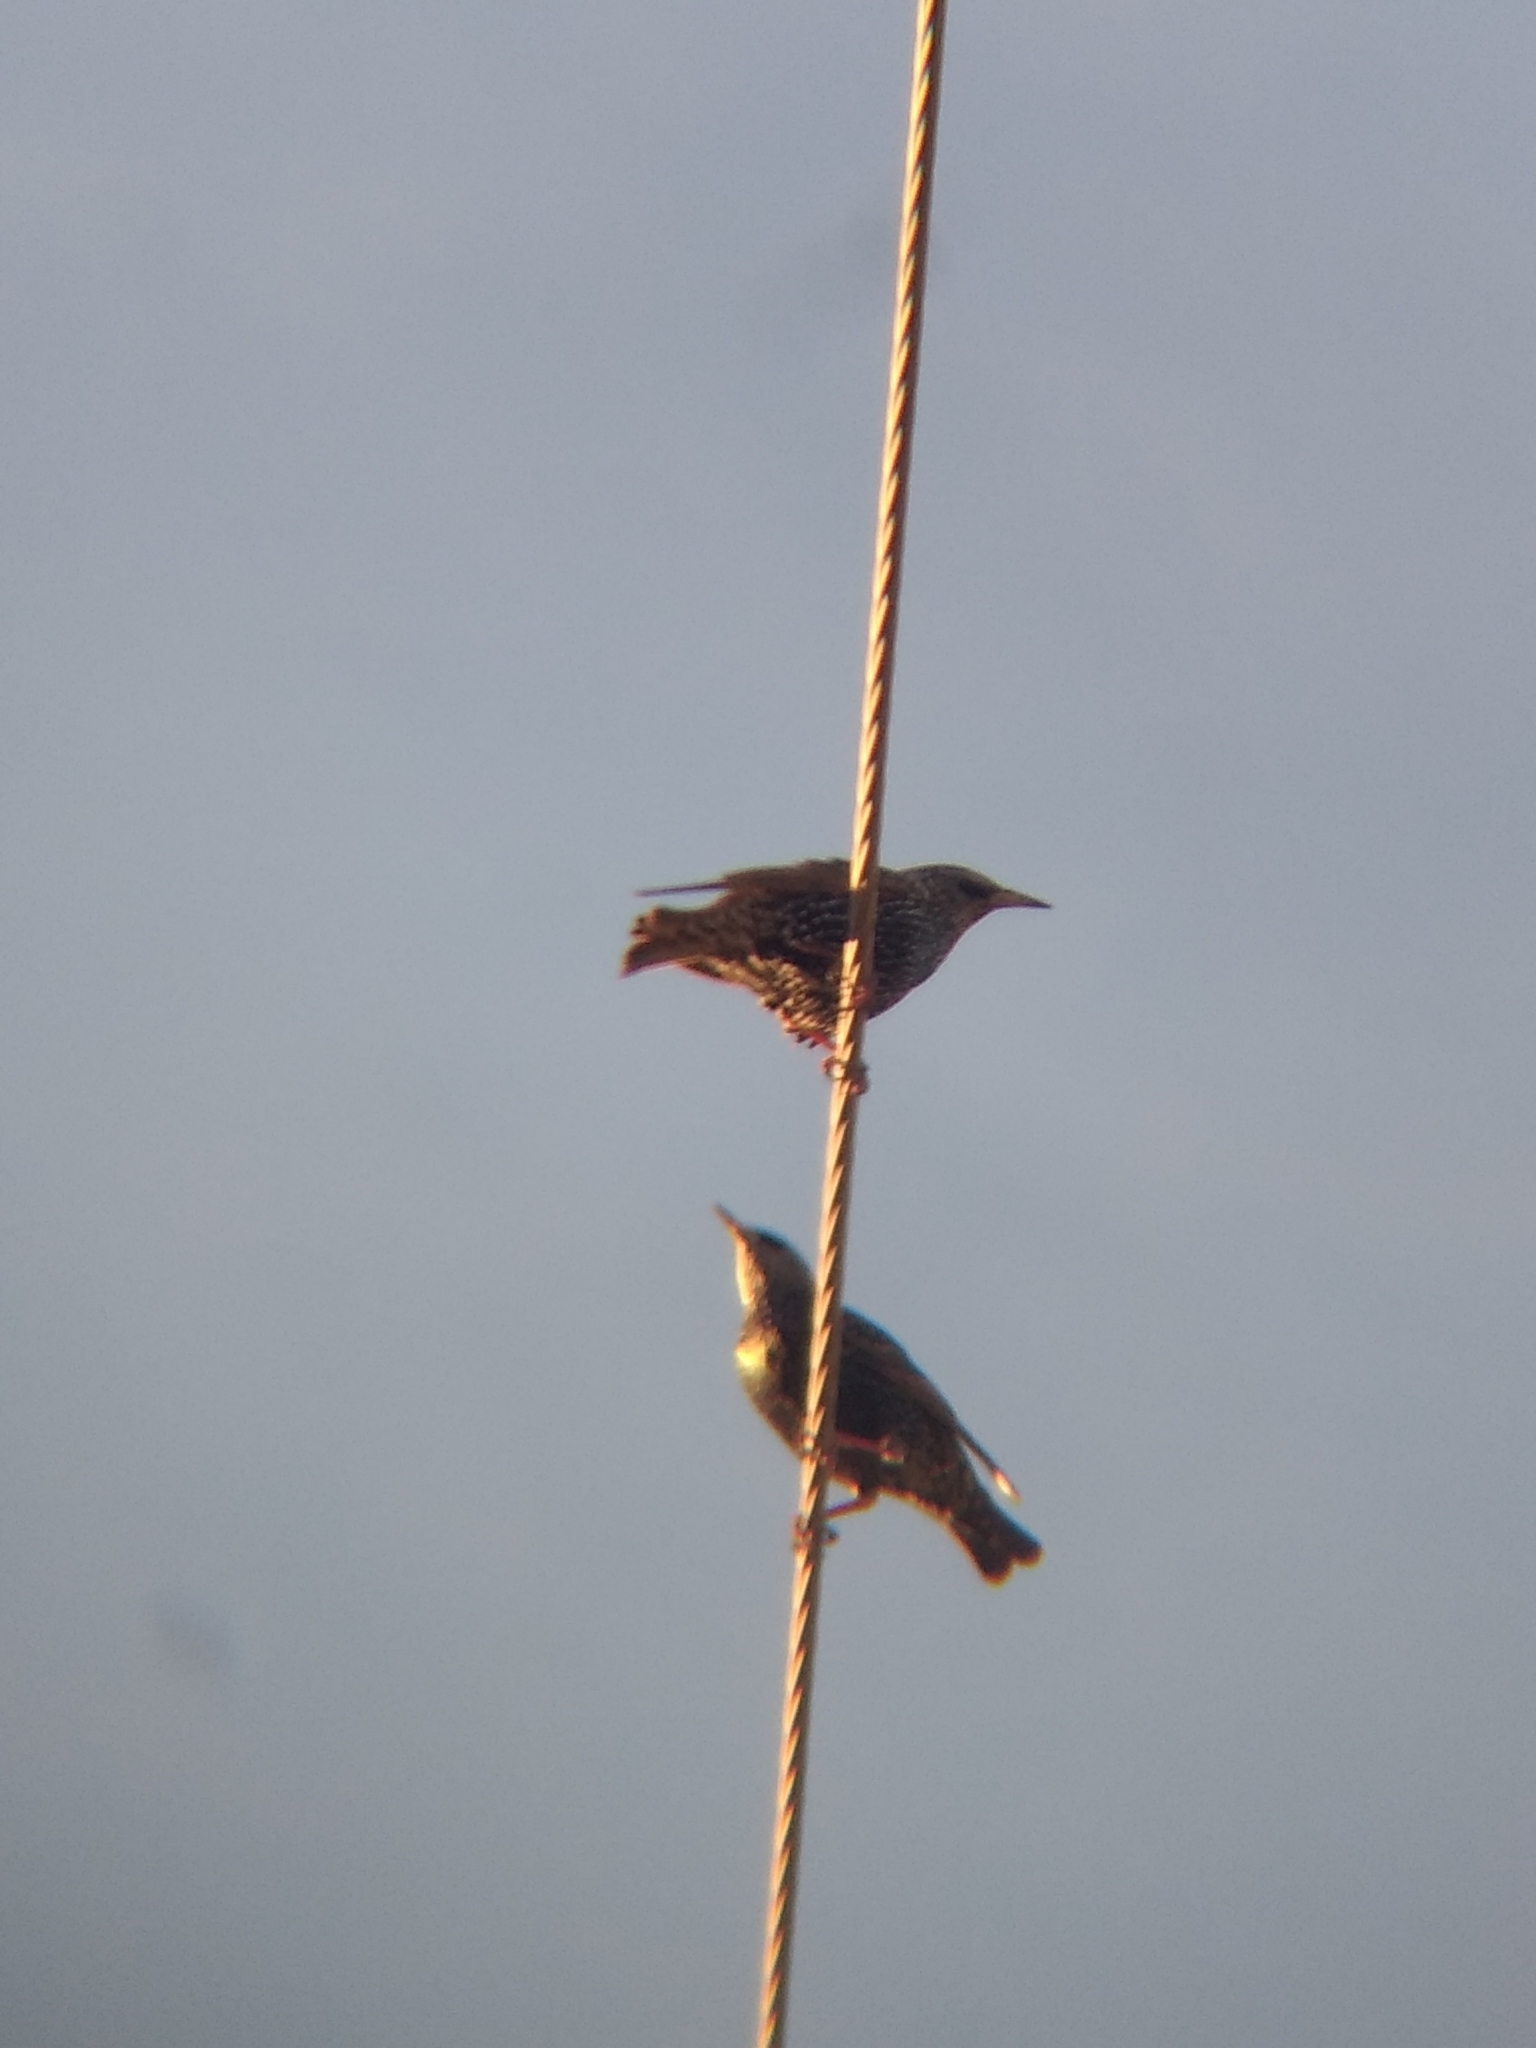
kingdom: Animalia
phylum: Chordata
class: Aves
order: Passeriformes
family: Sturnidae
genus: Sturnus
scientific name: Sturnus vulgaris
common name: Common starling
